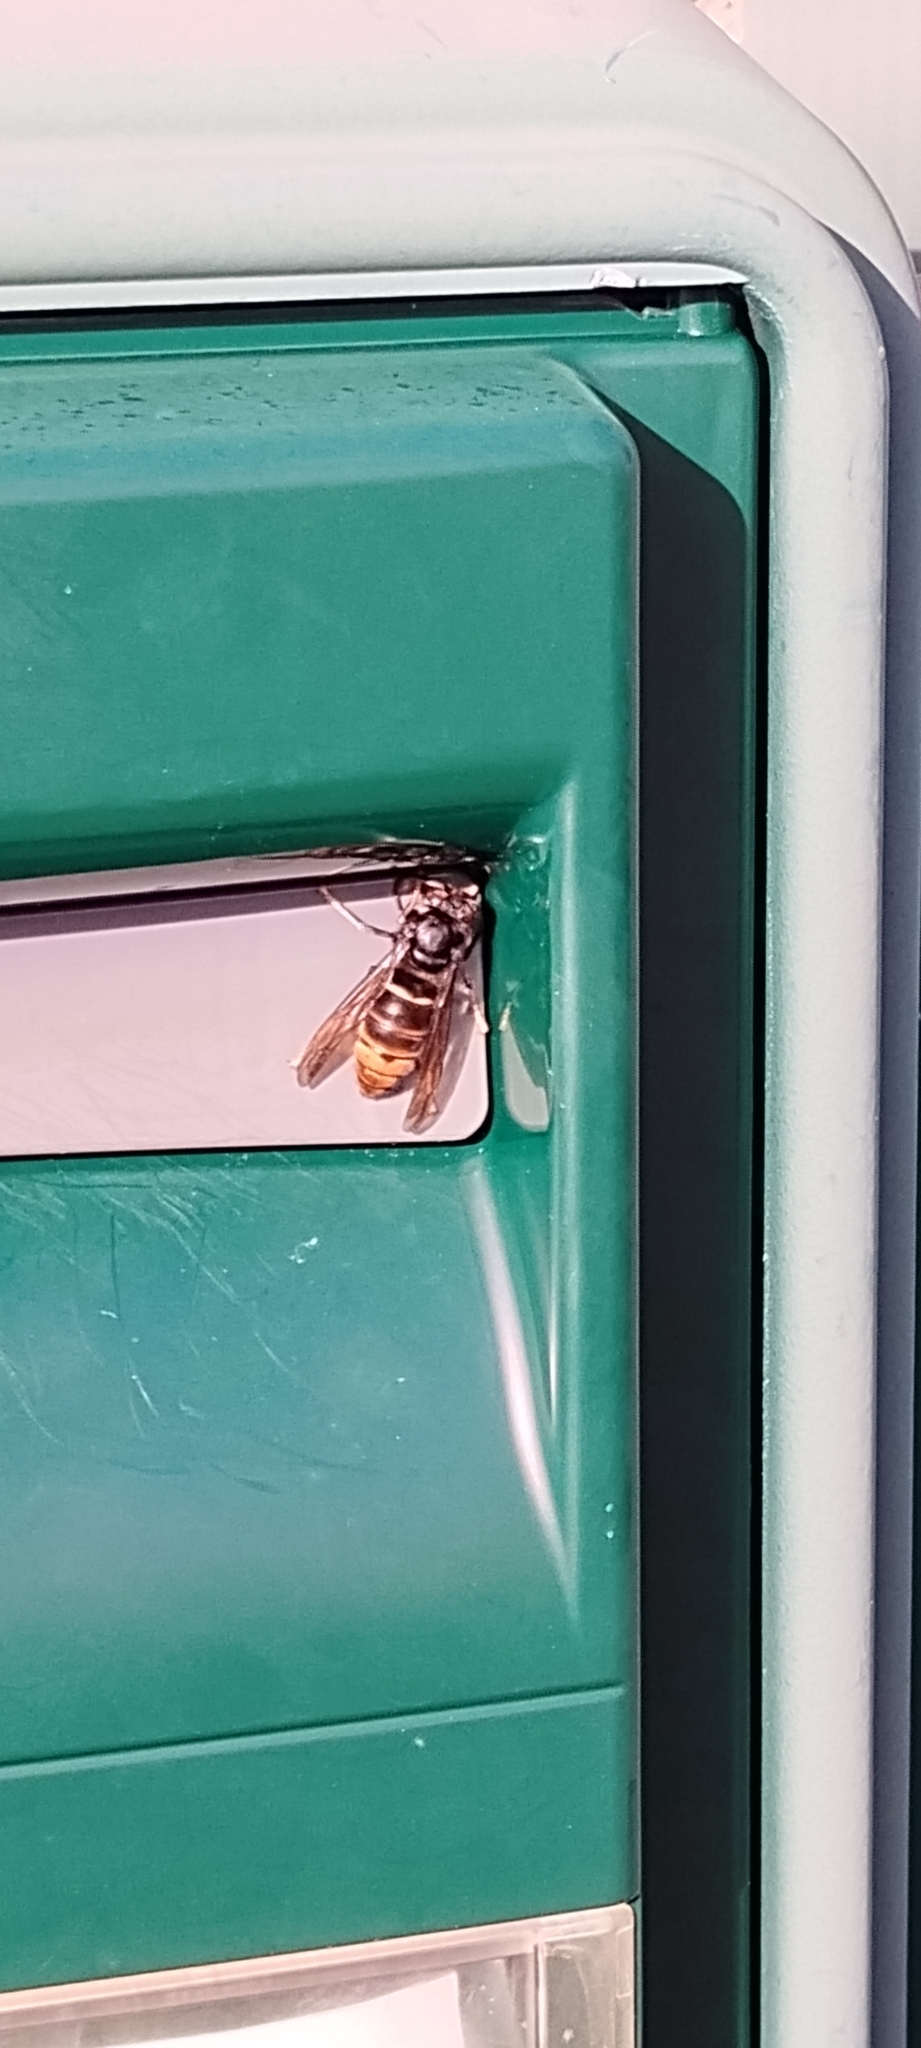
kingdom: Animalia
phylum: Arthropoda
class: Insecta
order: Hymenoptera
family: Vespidae
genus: Vespa
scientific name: Vespa velutina
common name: Asian hornet
